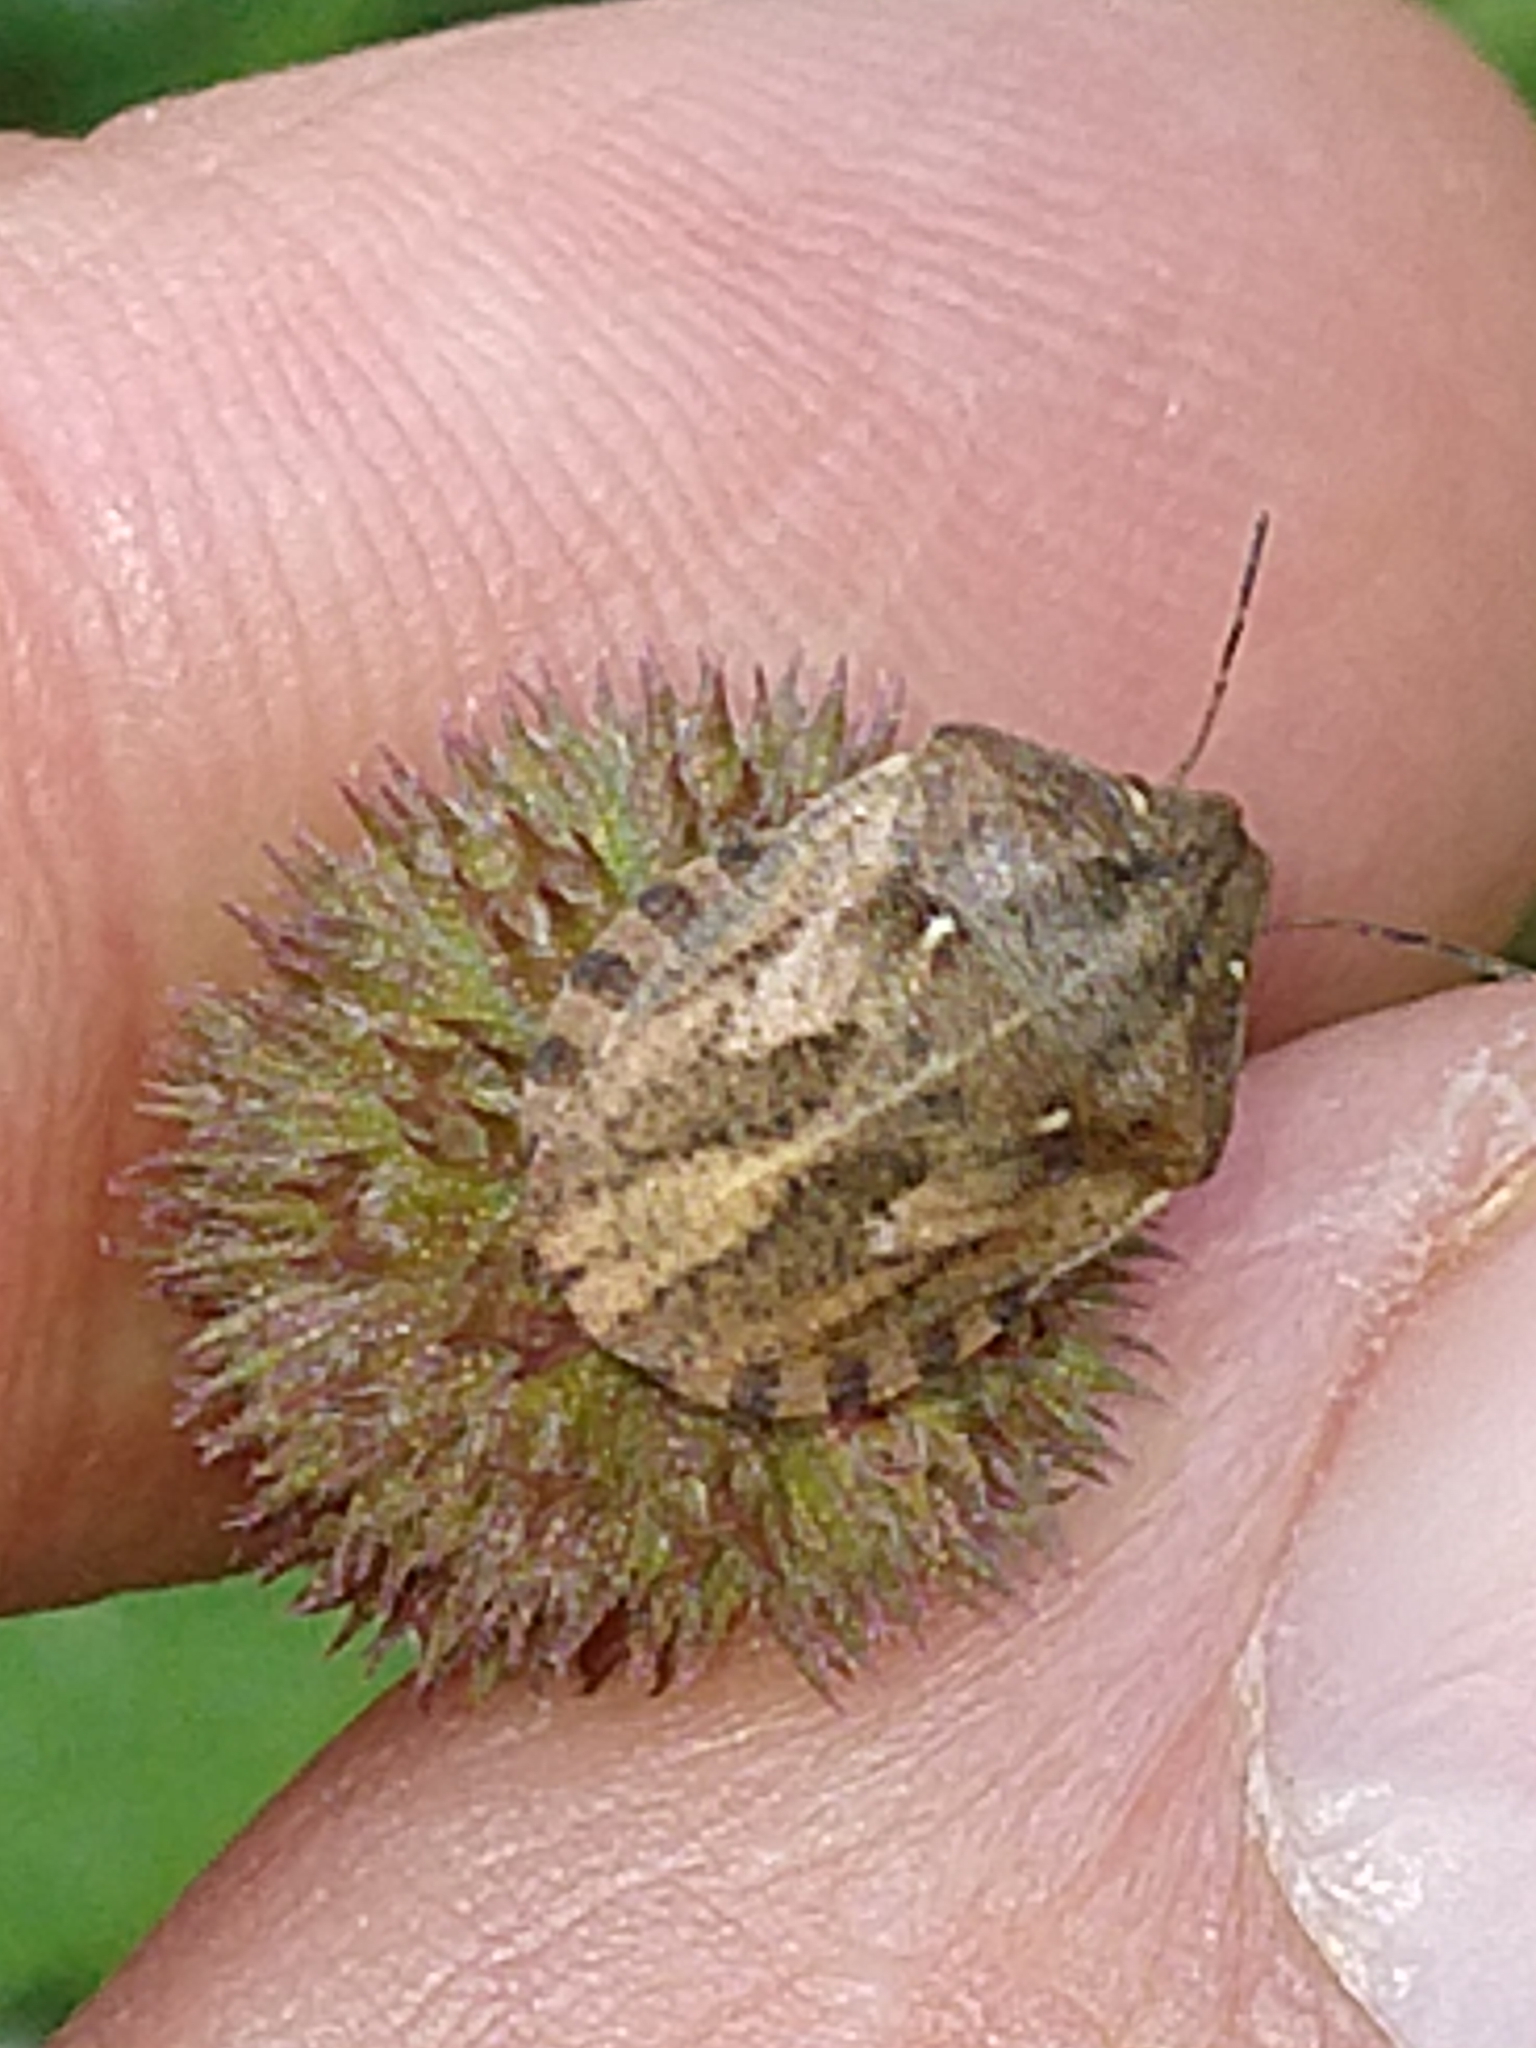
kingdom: Animalia
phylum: Arthropoda
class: Insecta
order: Hemiptera
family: Scutelleridae
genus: Eurygaster
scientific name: Eurygaster testudinaria
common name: Tortoise bug
